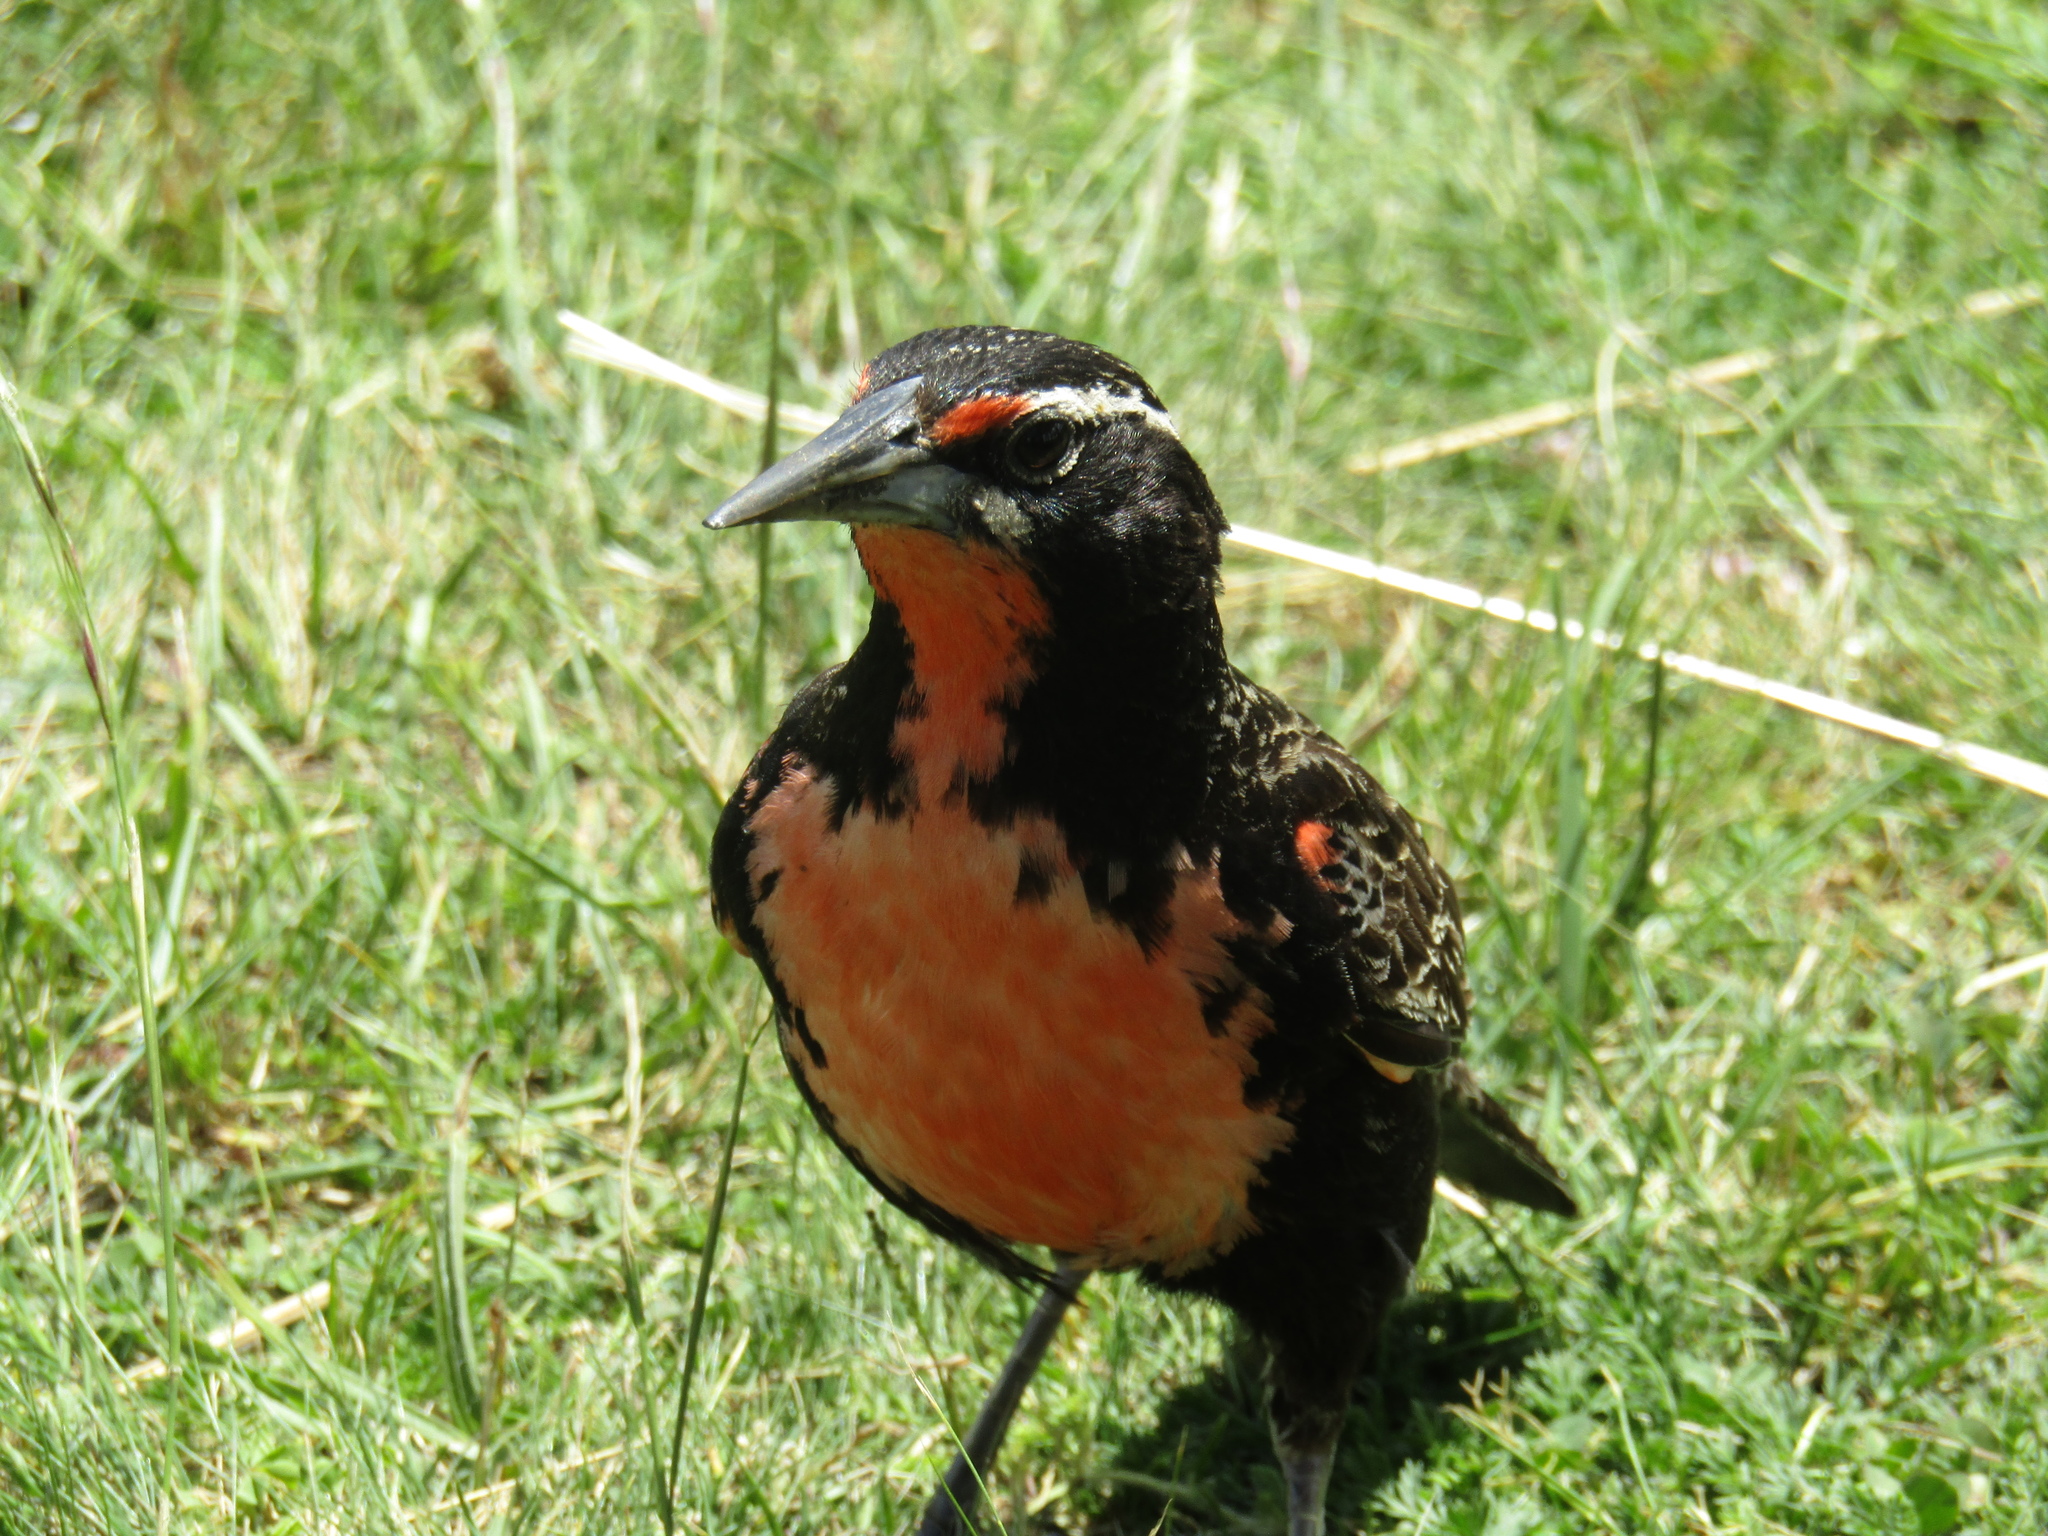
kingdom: Animalia
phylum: Chordata
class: Aves
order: Passeriformes
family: Icteridae
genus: Sturnella
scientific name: Sturnella loyca
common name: Long-tailed meadowlark
